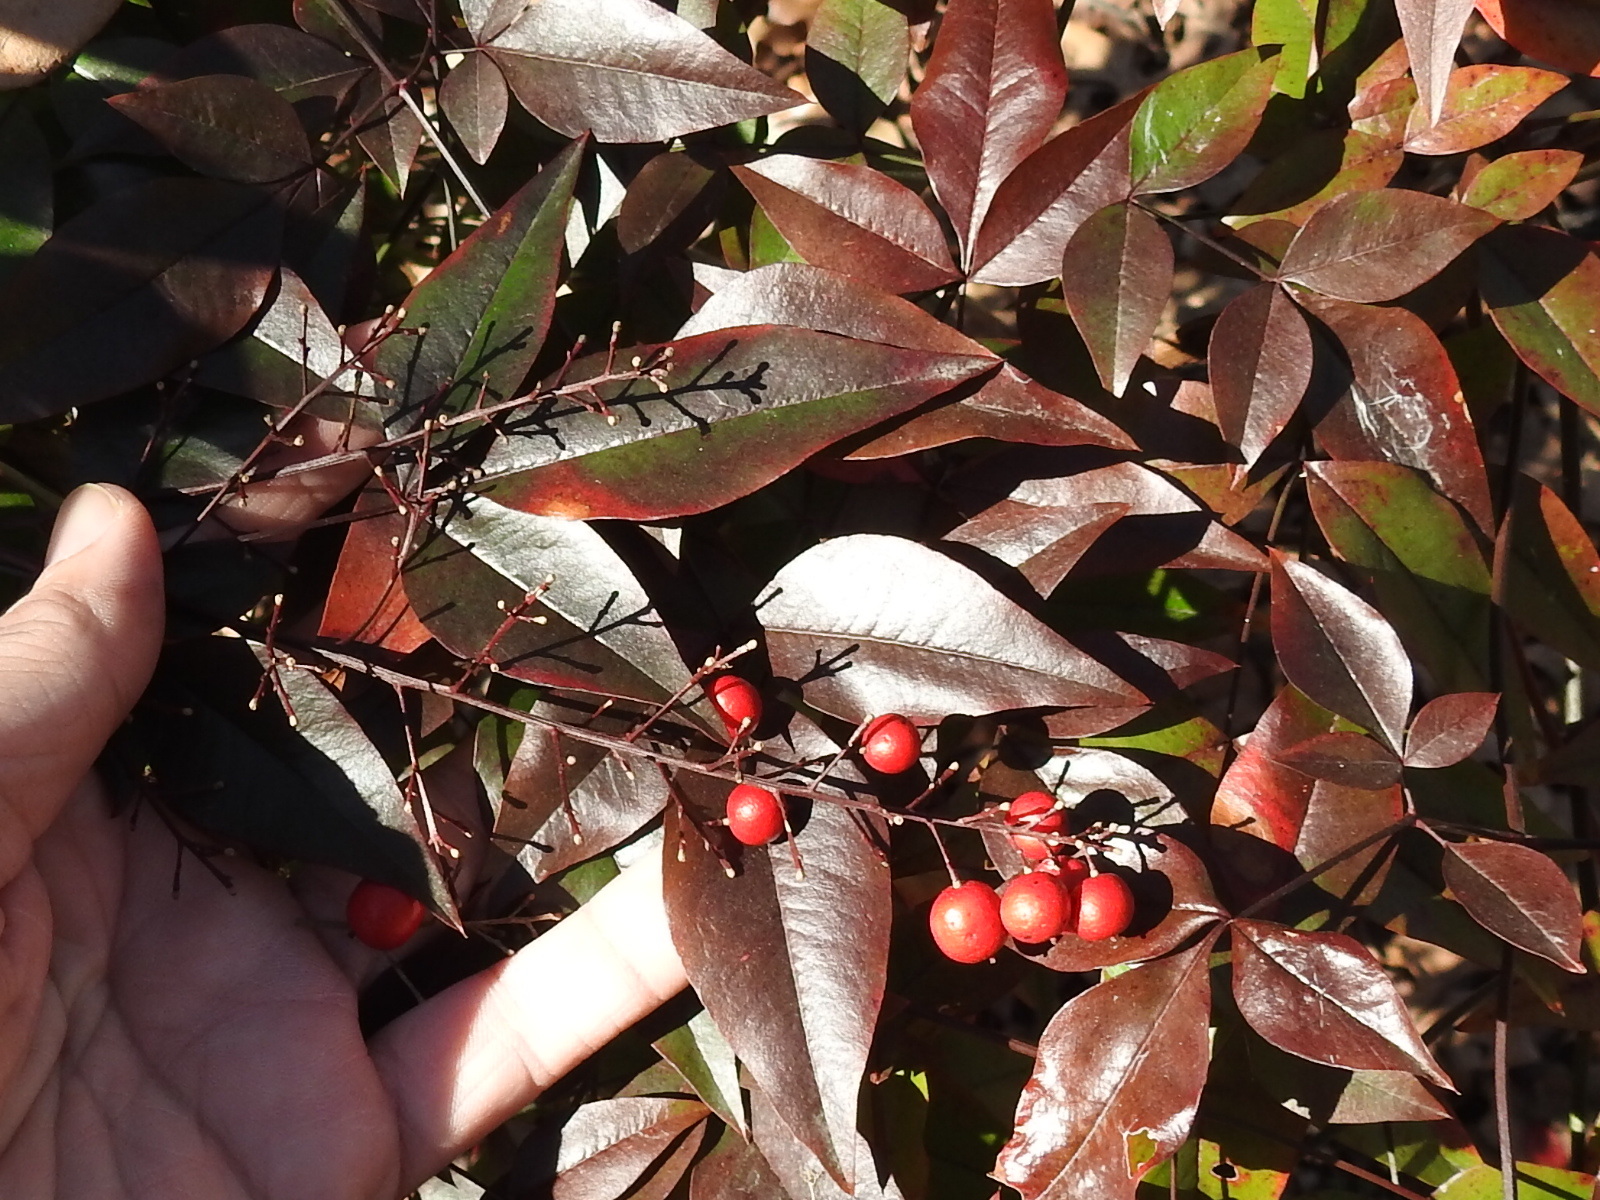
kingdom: Plantae
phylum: Tracheophyta
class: Magnoliopsida
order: Ranunculales
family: Berberidaceae
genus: Nandina
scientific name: Nandina domestica
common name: Sacred bamboo
